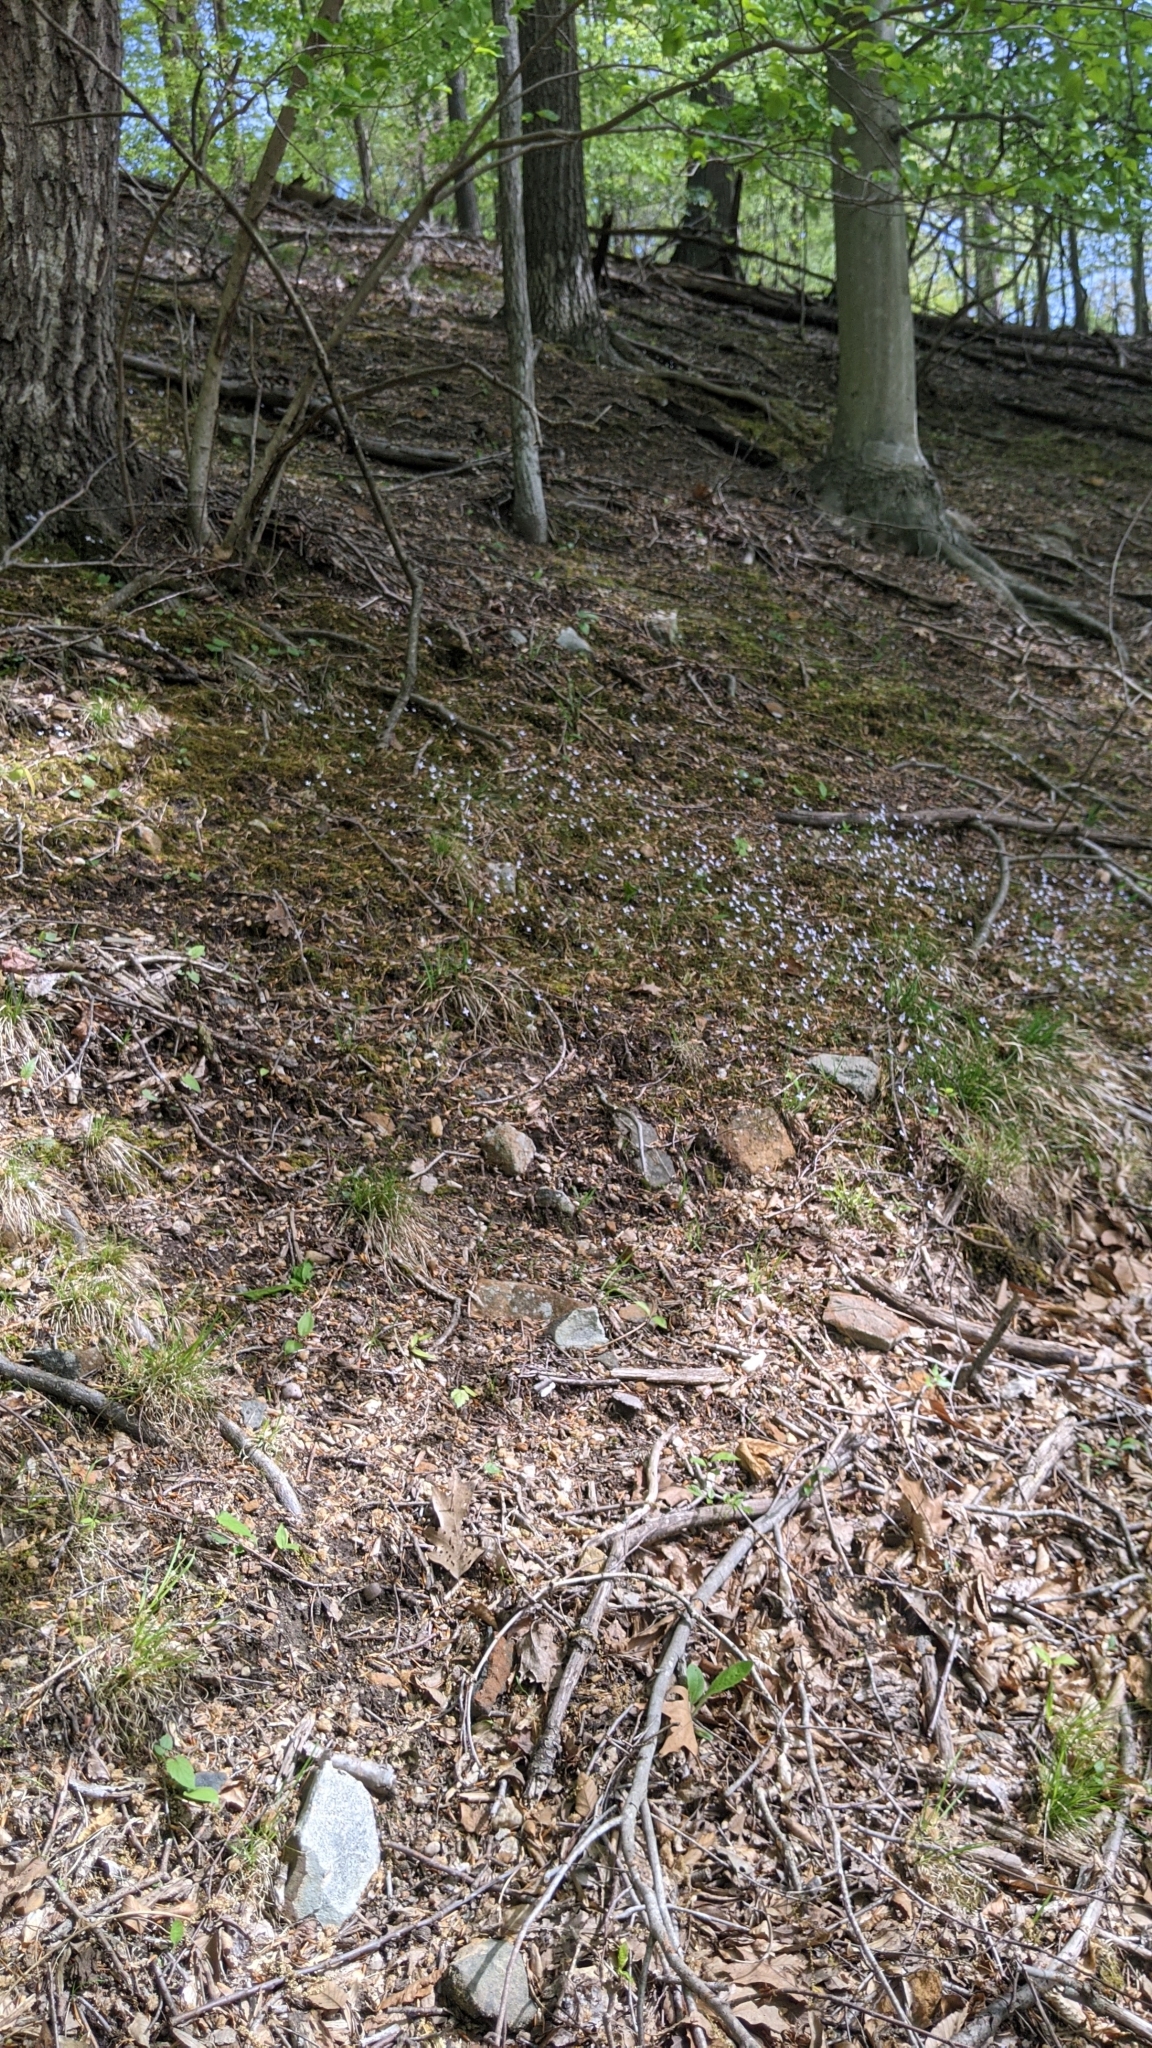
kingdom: Plantae
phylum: Tracheophyta
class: Magnoliopsida
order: Gentianales
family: Rubiaceae
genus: Houstonia
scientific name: Houstonia caerulea
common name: Bluets
